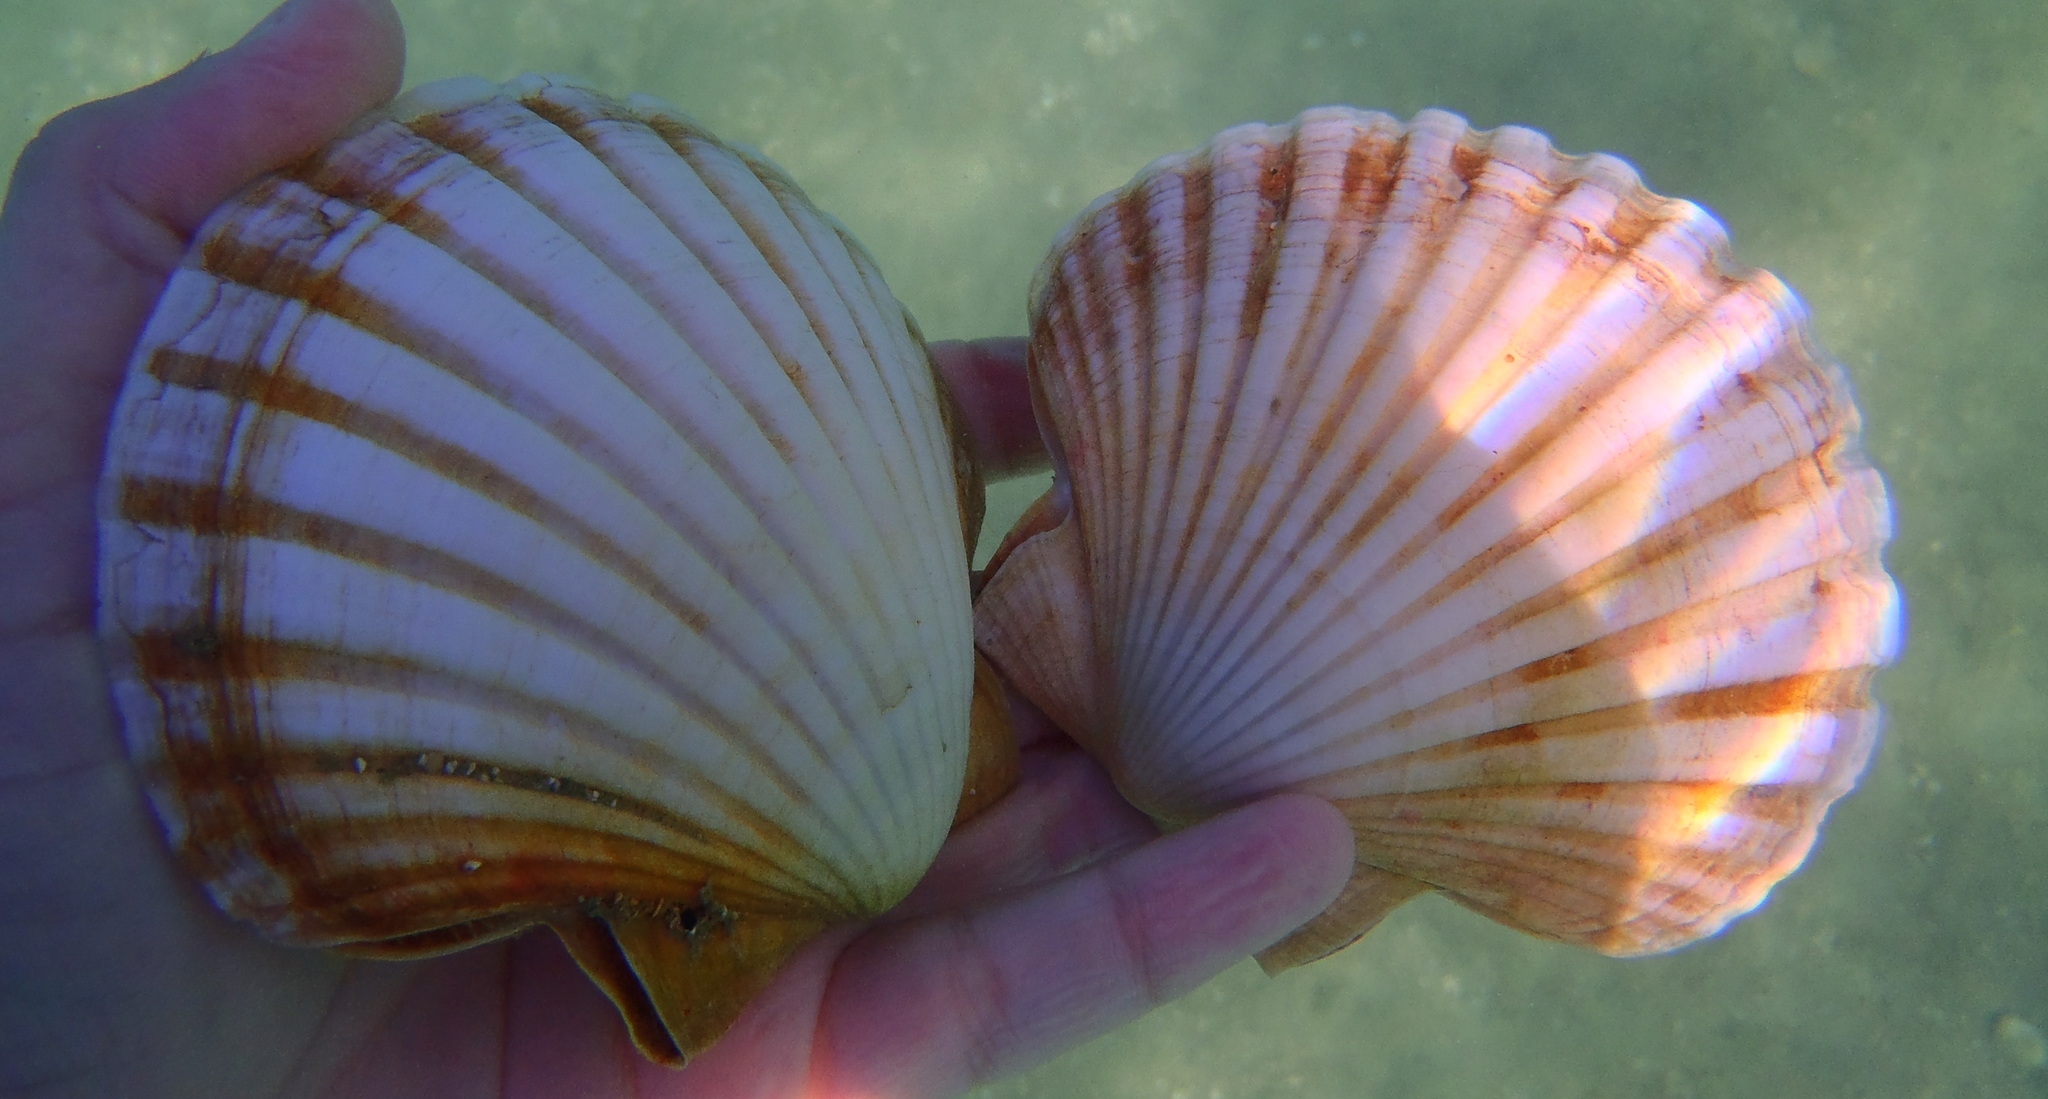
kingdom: Animalia
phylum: Mollusca
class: Bivalvia
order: Pectinida
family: Pectinidae
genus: Pecten
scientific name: Pecten novaezelandiae
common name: New zealand scallop
